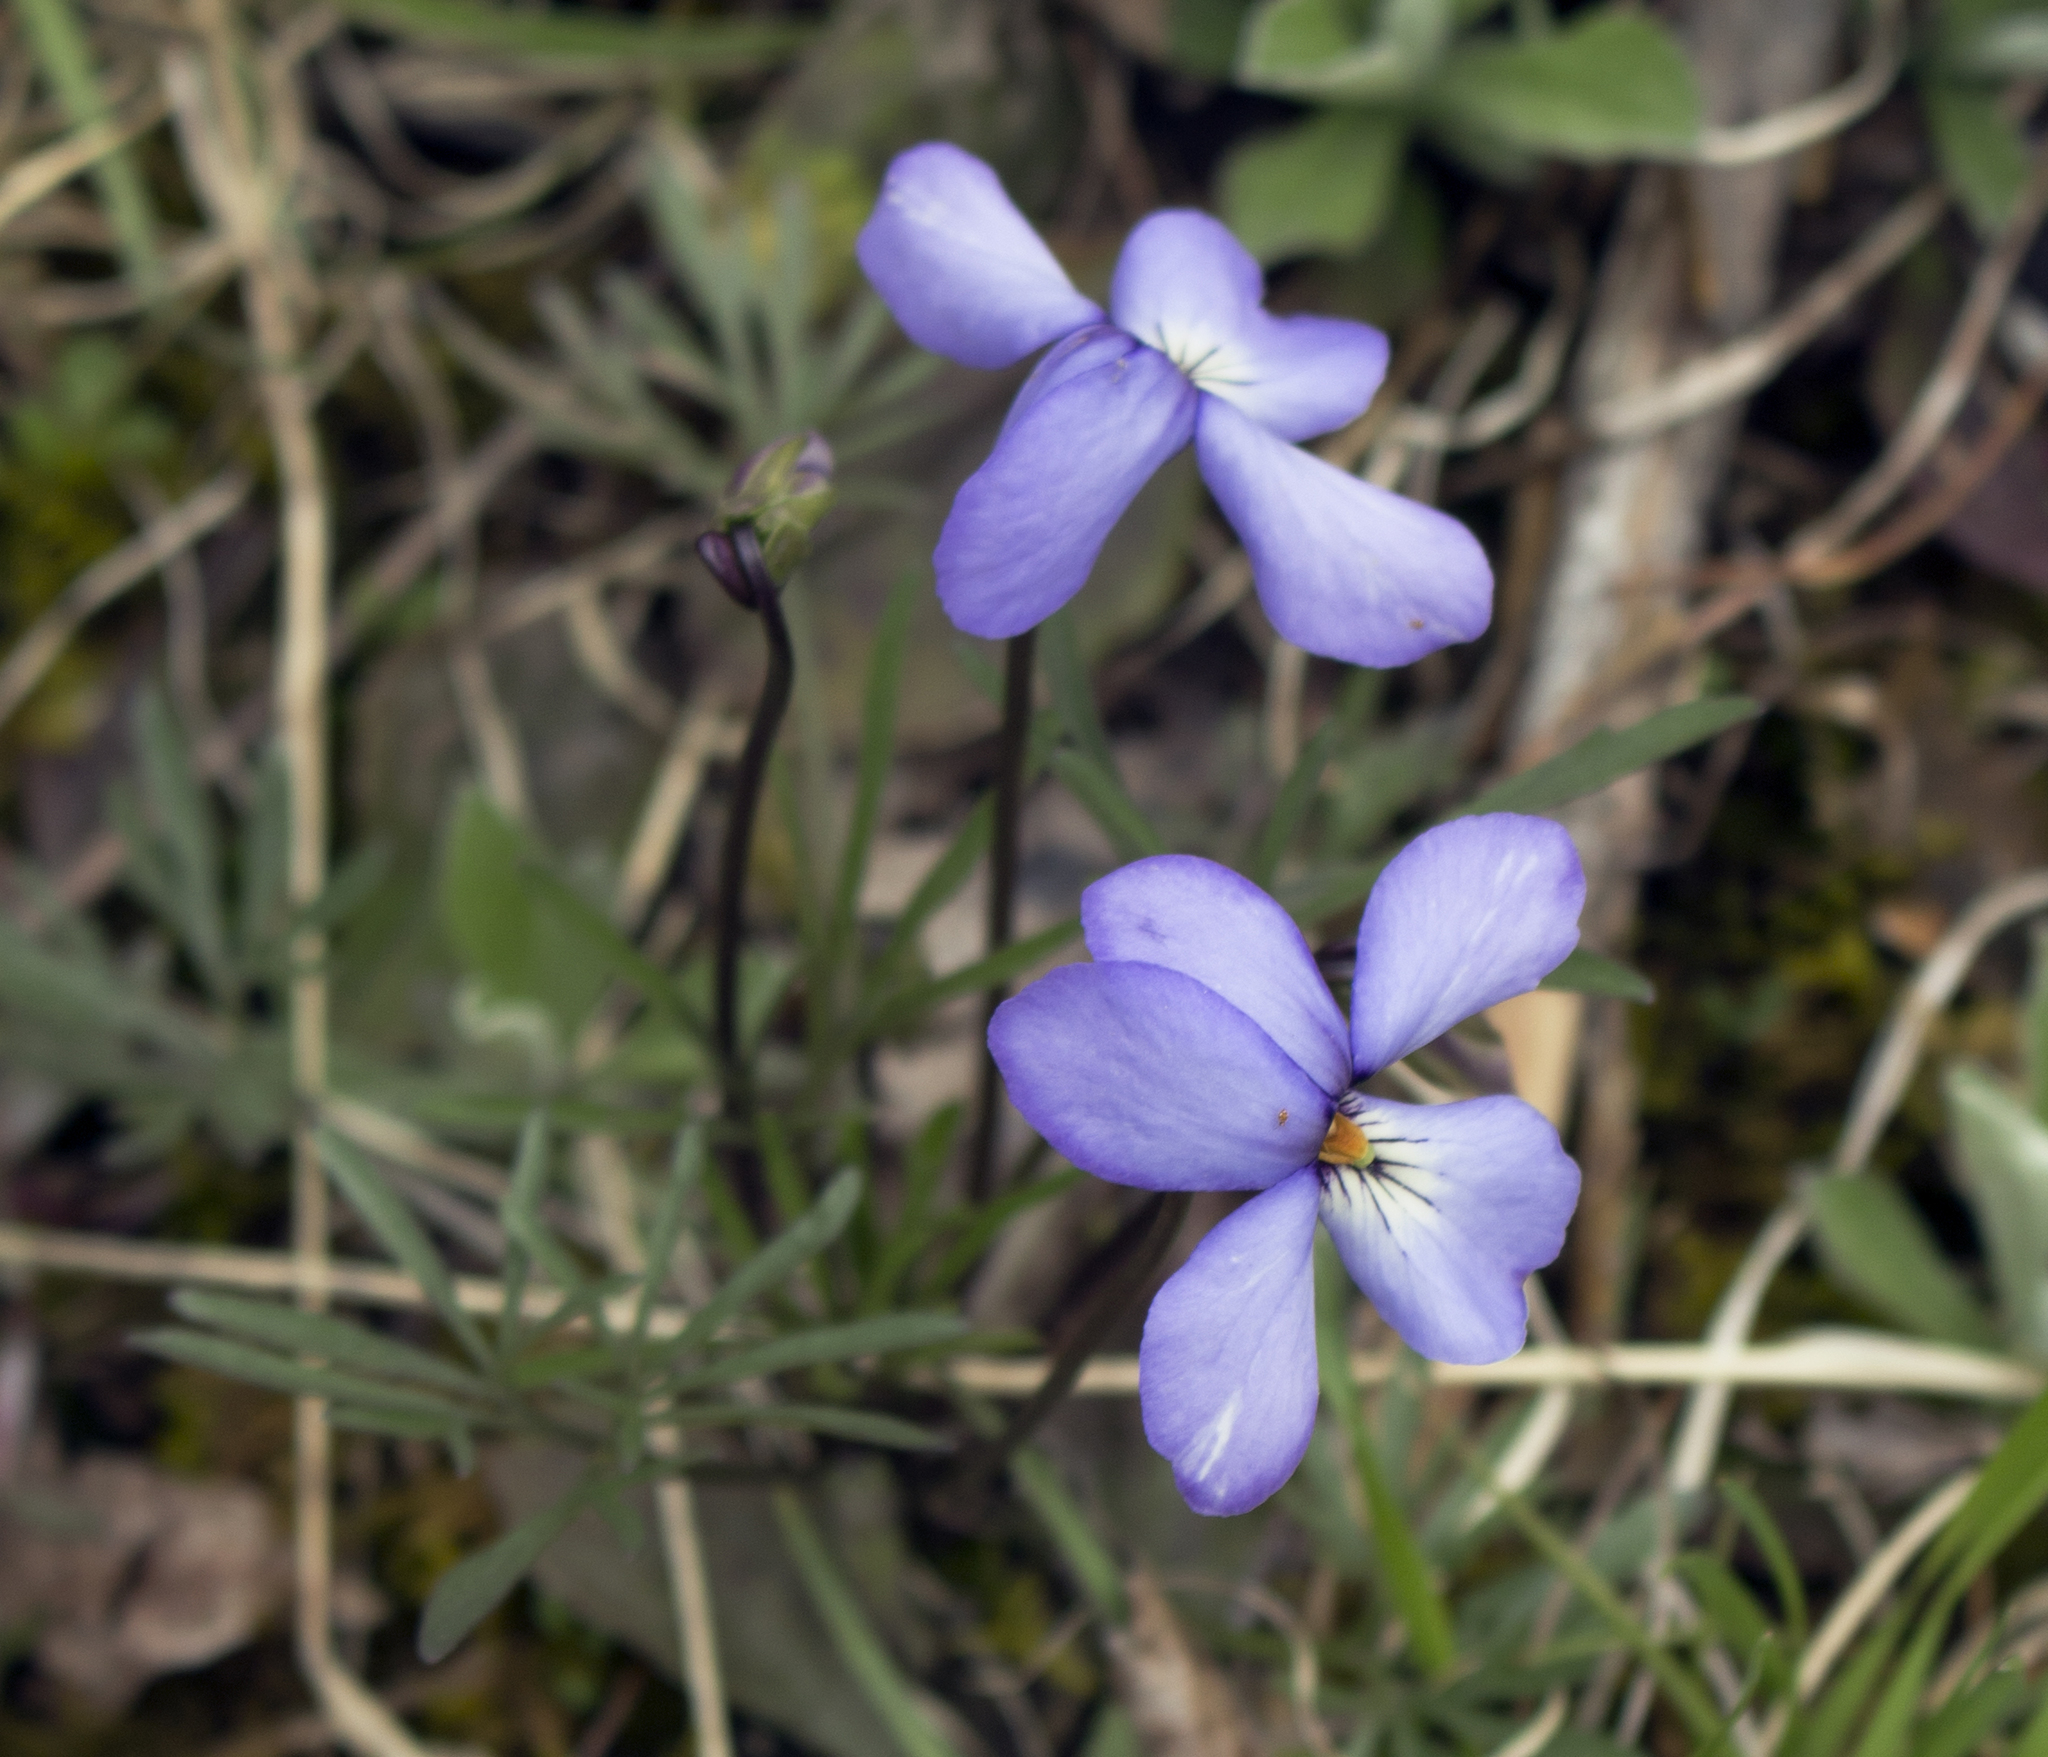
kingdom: Plantae
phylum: Tracheophyta
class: Magnoliopsida
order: Malpighiales
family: Violaceae
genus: Viola
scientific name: Viola pedata
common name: Pansy violet
